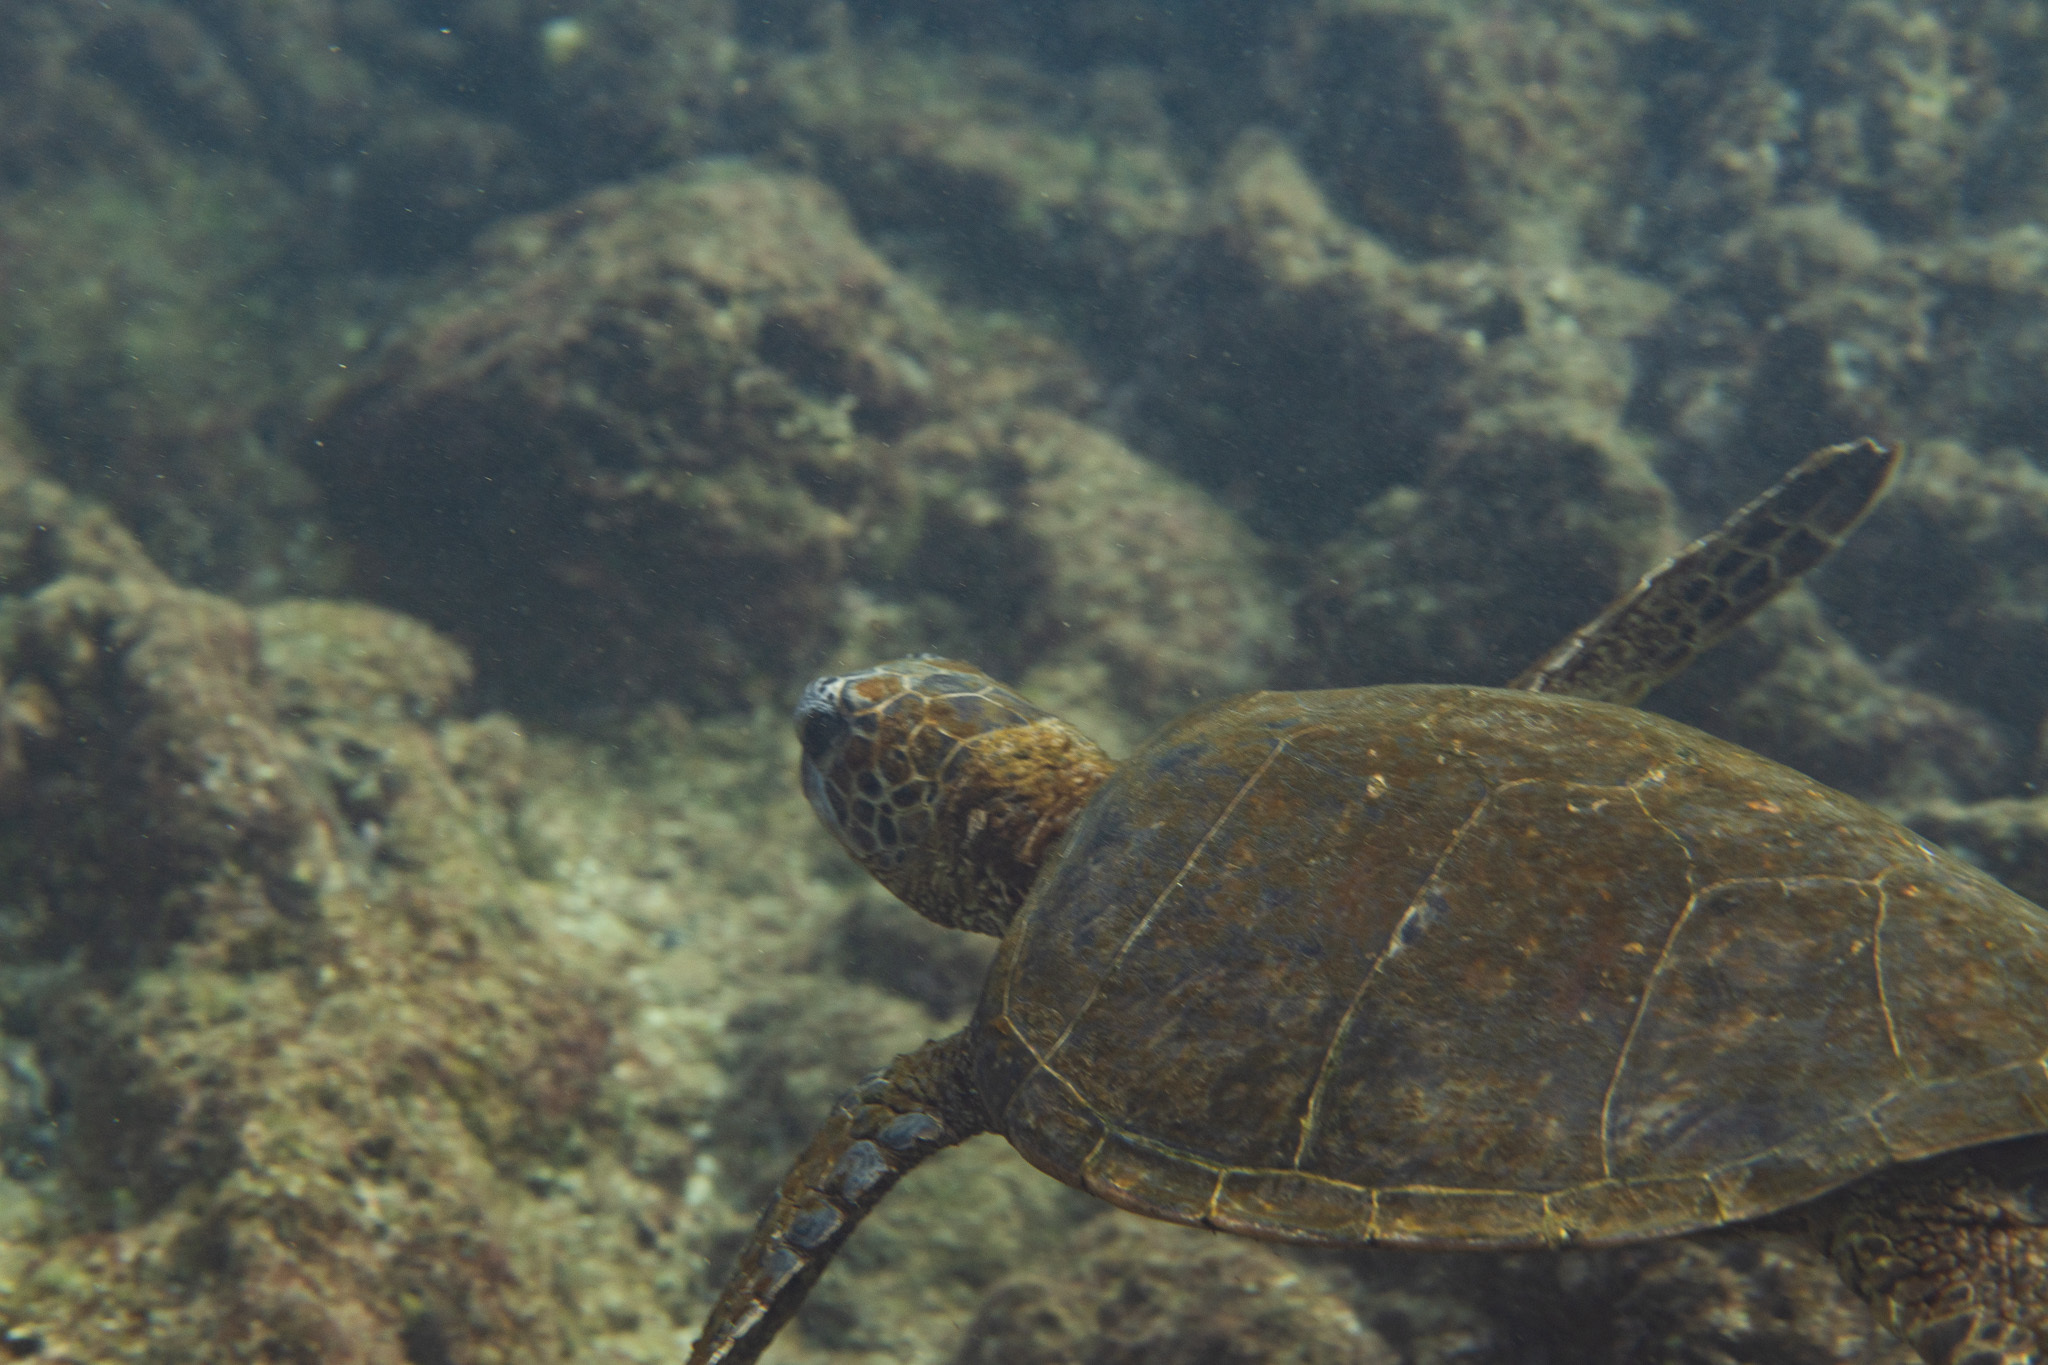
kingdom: Animalia
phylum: Chordata
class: Testudines
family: Cheloniidae
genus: Chelonia
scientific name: Chelonia mydas
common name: Green turtle
